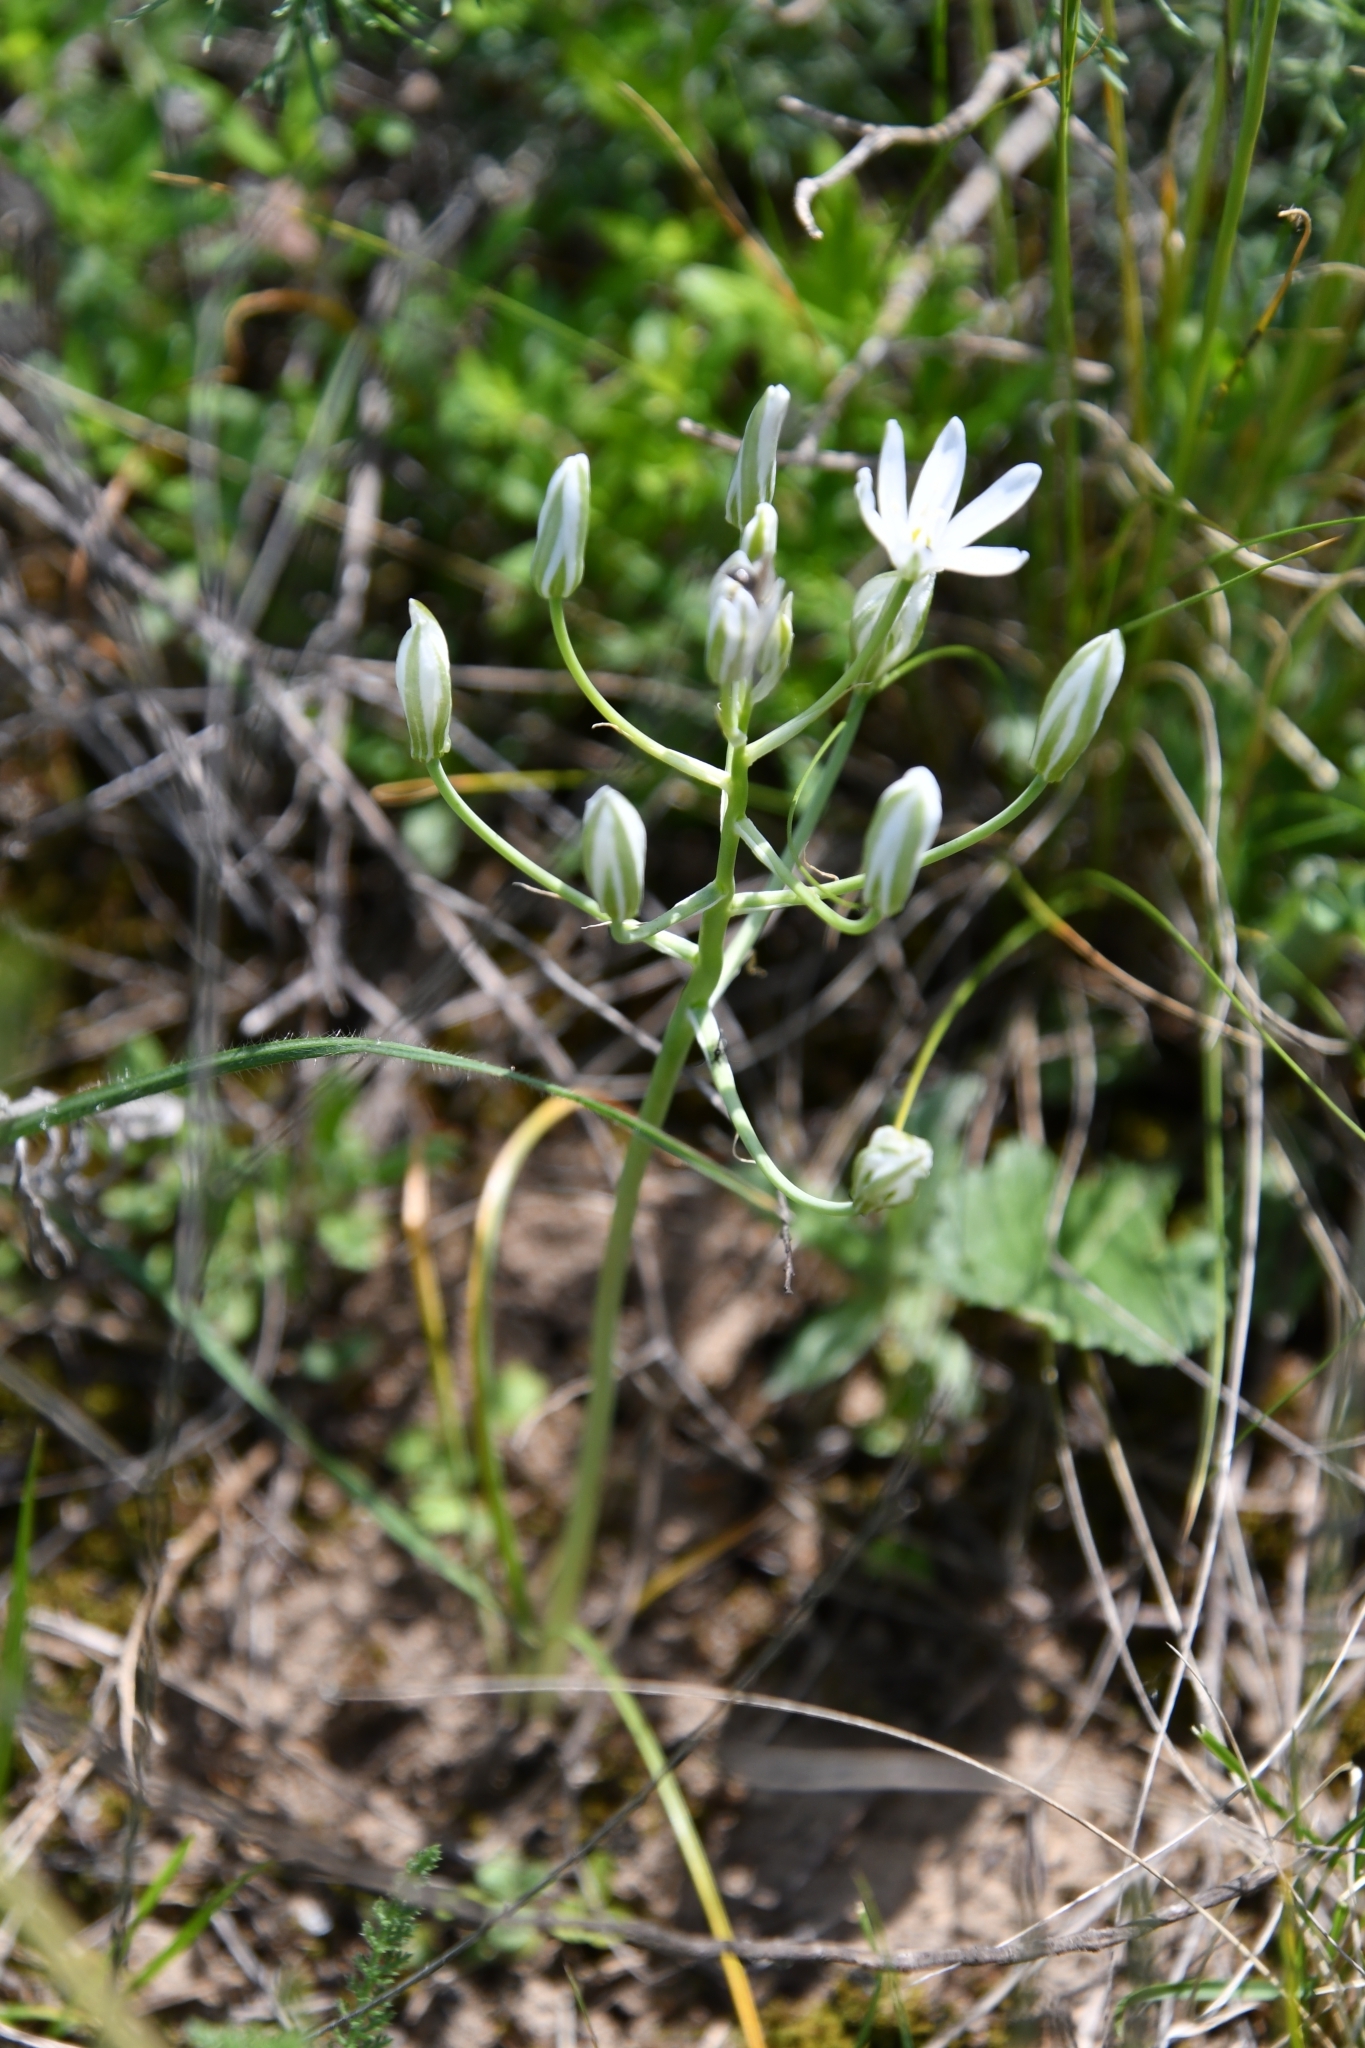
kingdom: Plantae
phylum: Tracheophyta
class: Liliopsida
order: Asparagales
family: Asparagaceae
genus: Ornithogalum
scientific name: Ornithogalum orthophyllum
